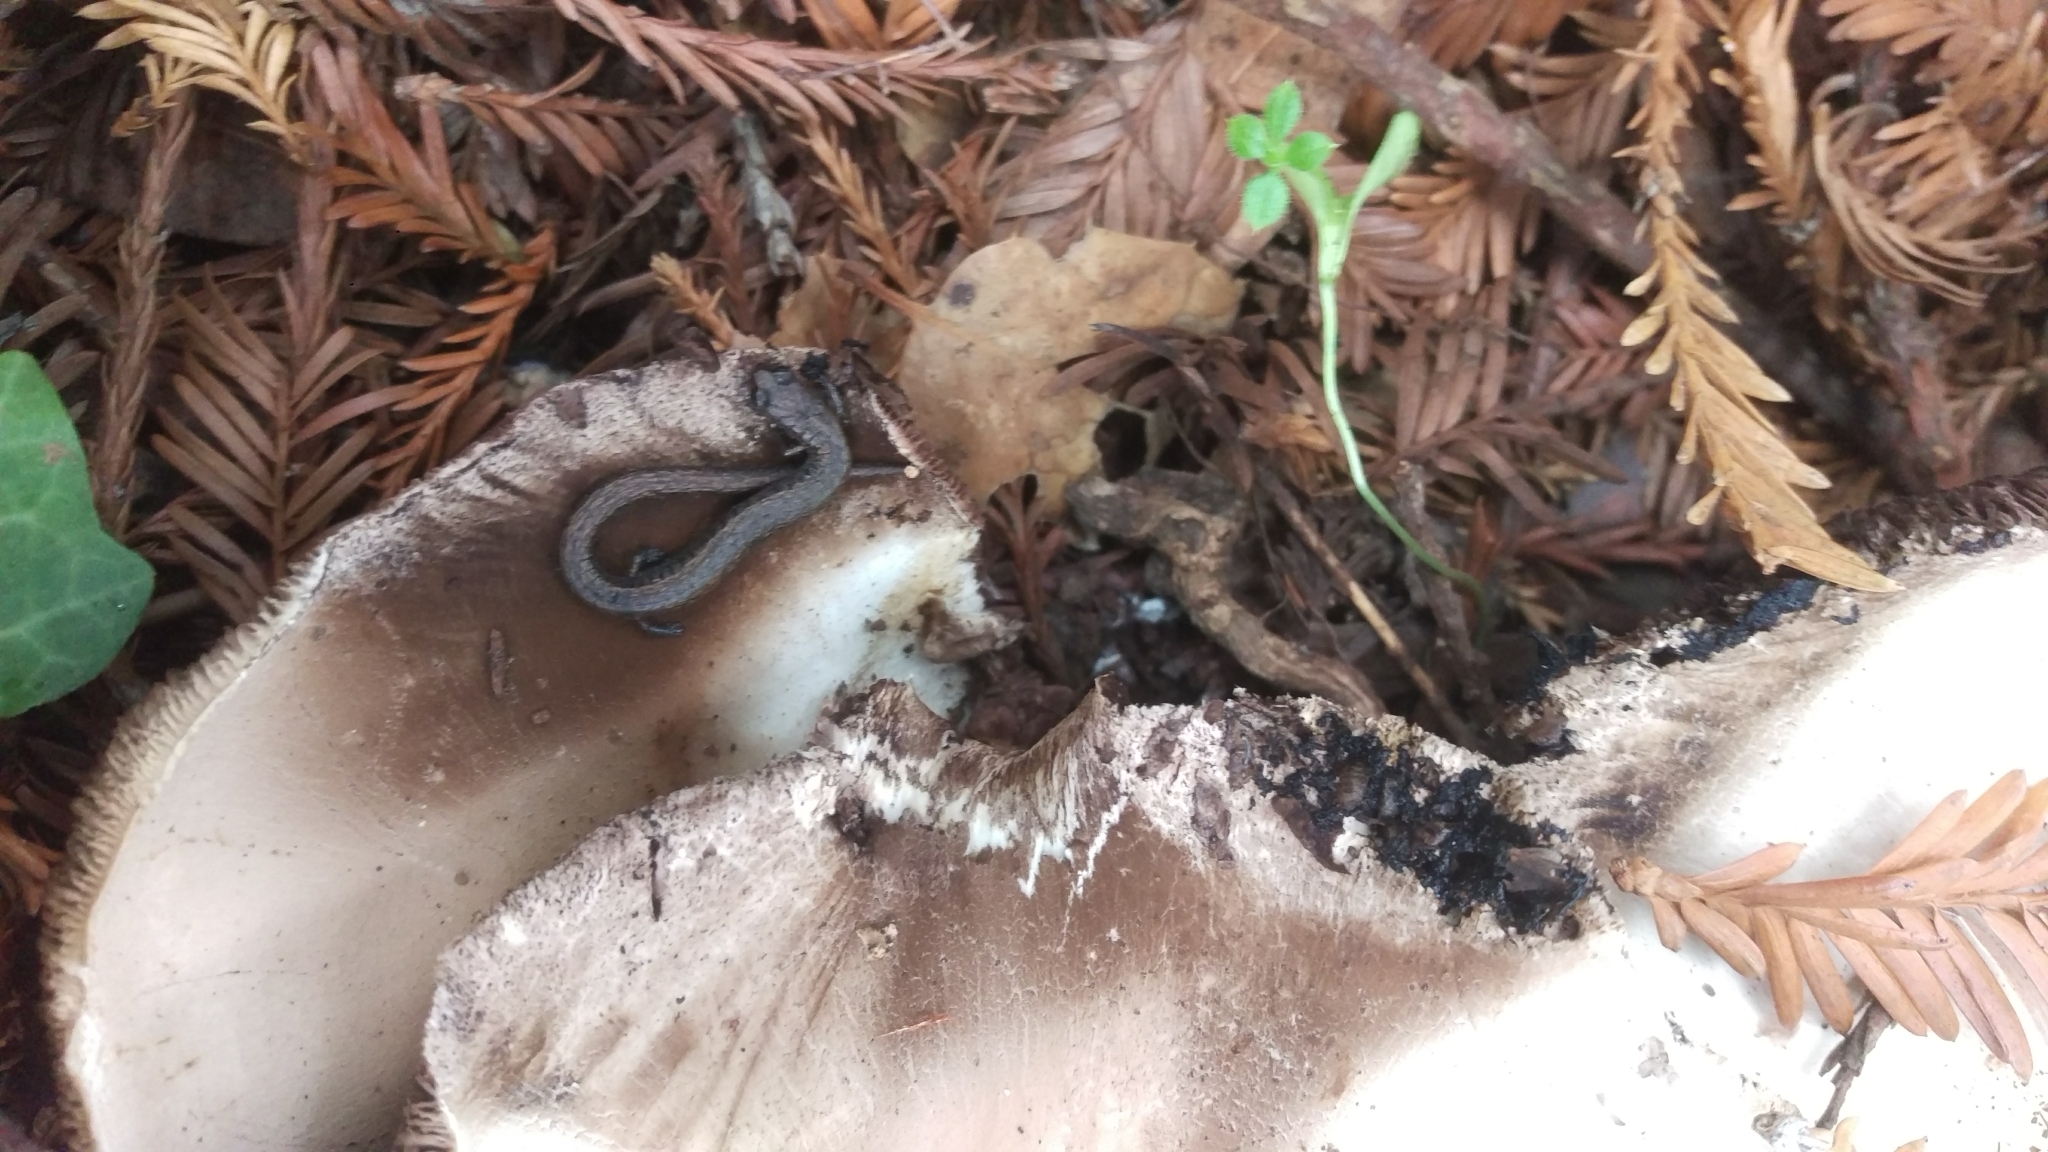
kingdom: Animalia
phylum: Chordata
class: Amphibia
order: Caudata
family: Plethodontidae
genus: Batrachoseps
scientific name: Batrachoseps attenuatus
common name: California slender salamander
